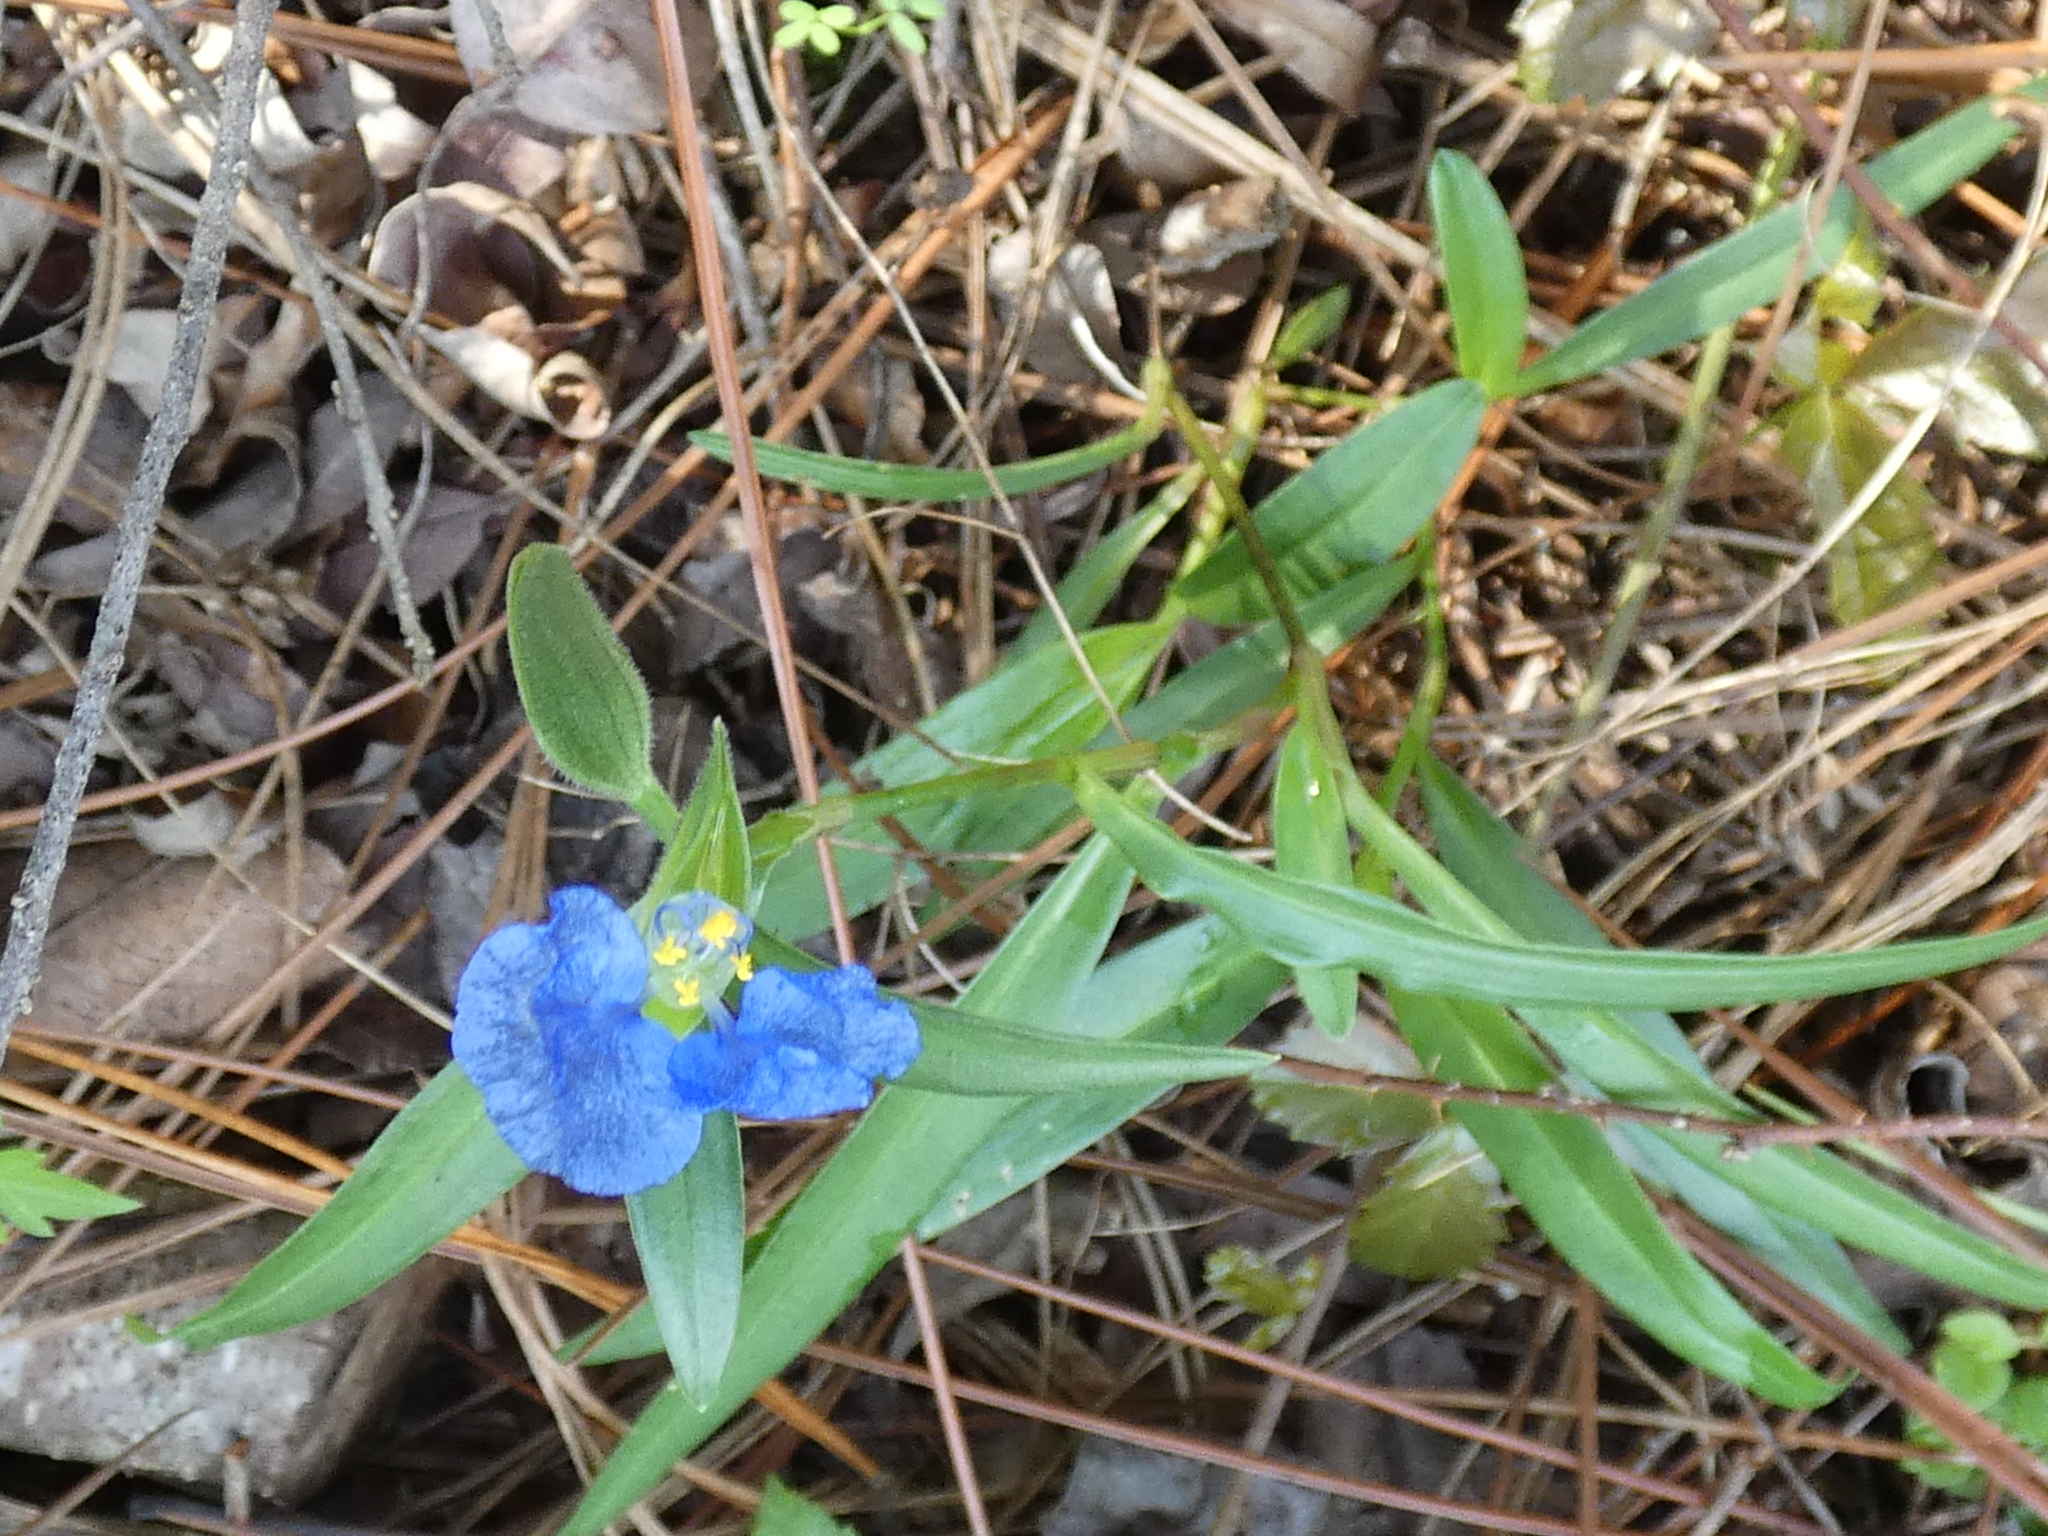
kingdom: Plantae
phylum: Tracheophyta
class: Liliopsida
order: Commelinales
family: Commelinaceae
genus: Commelina
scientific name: Commelina erecta
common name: Blousel blommetjie
